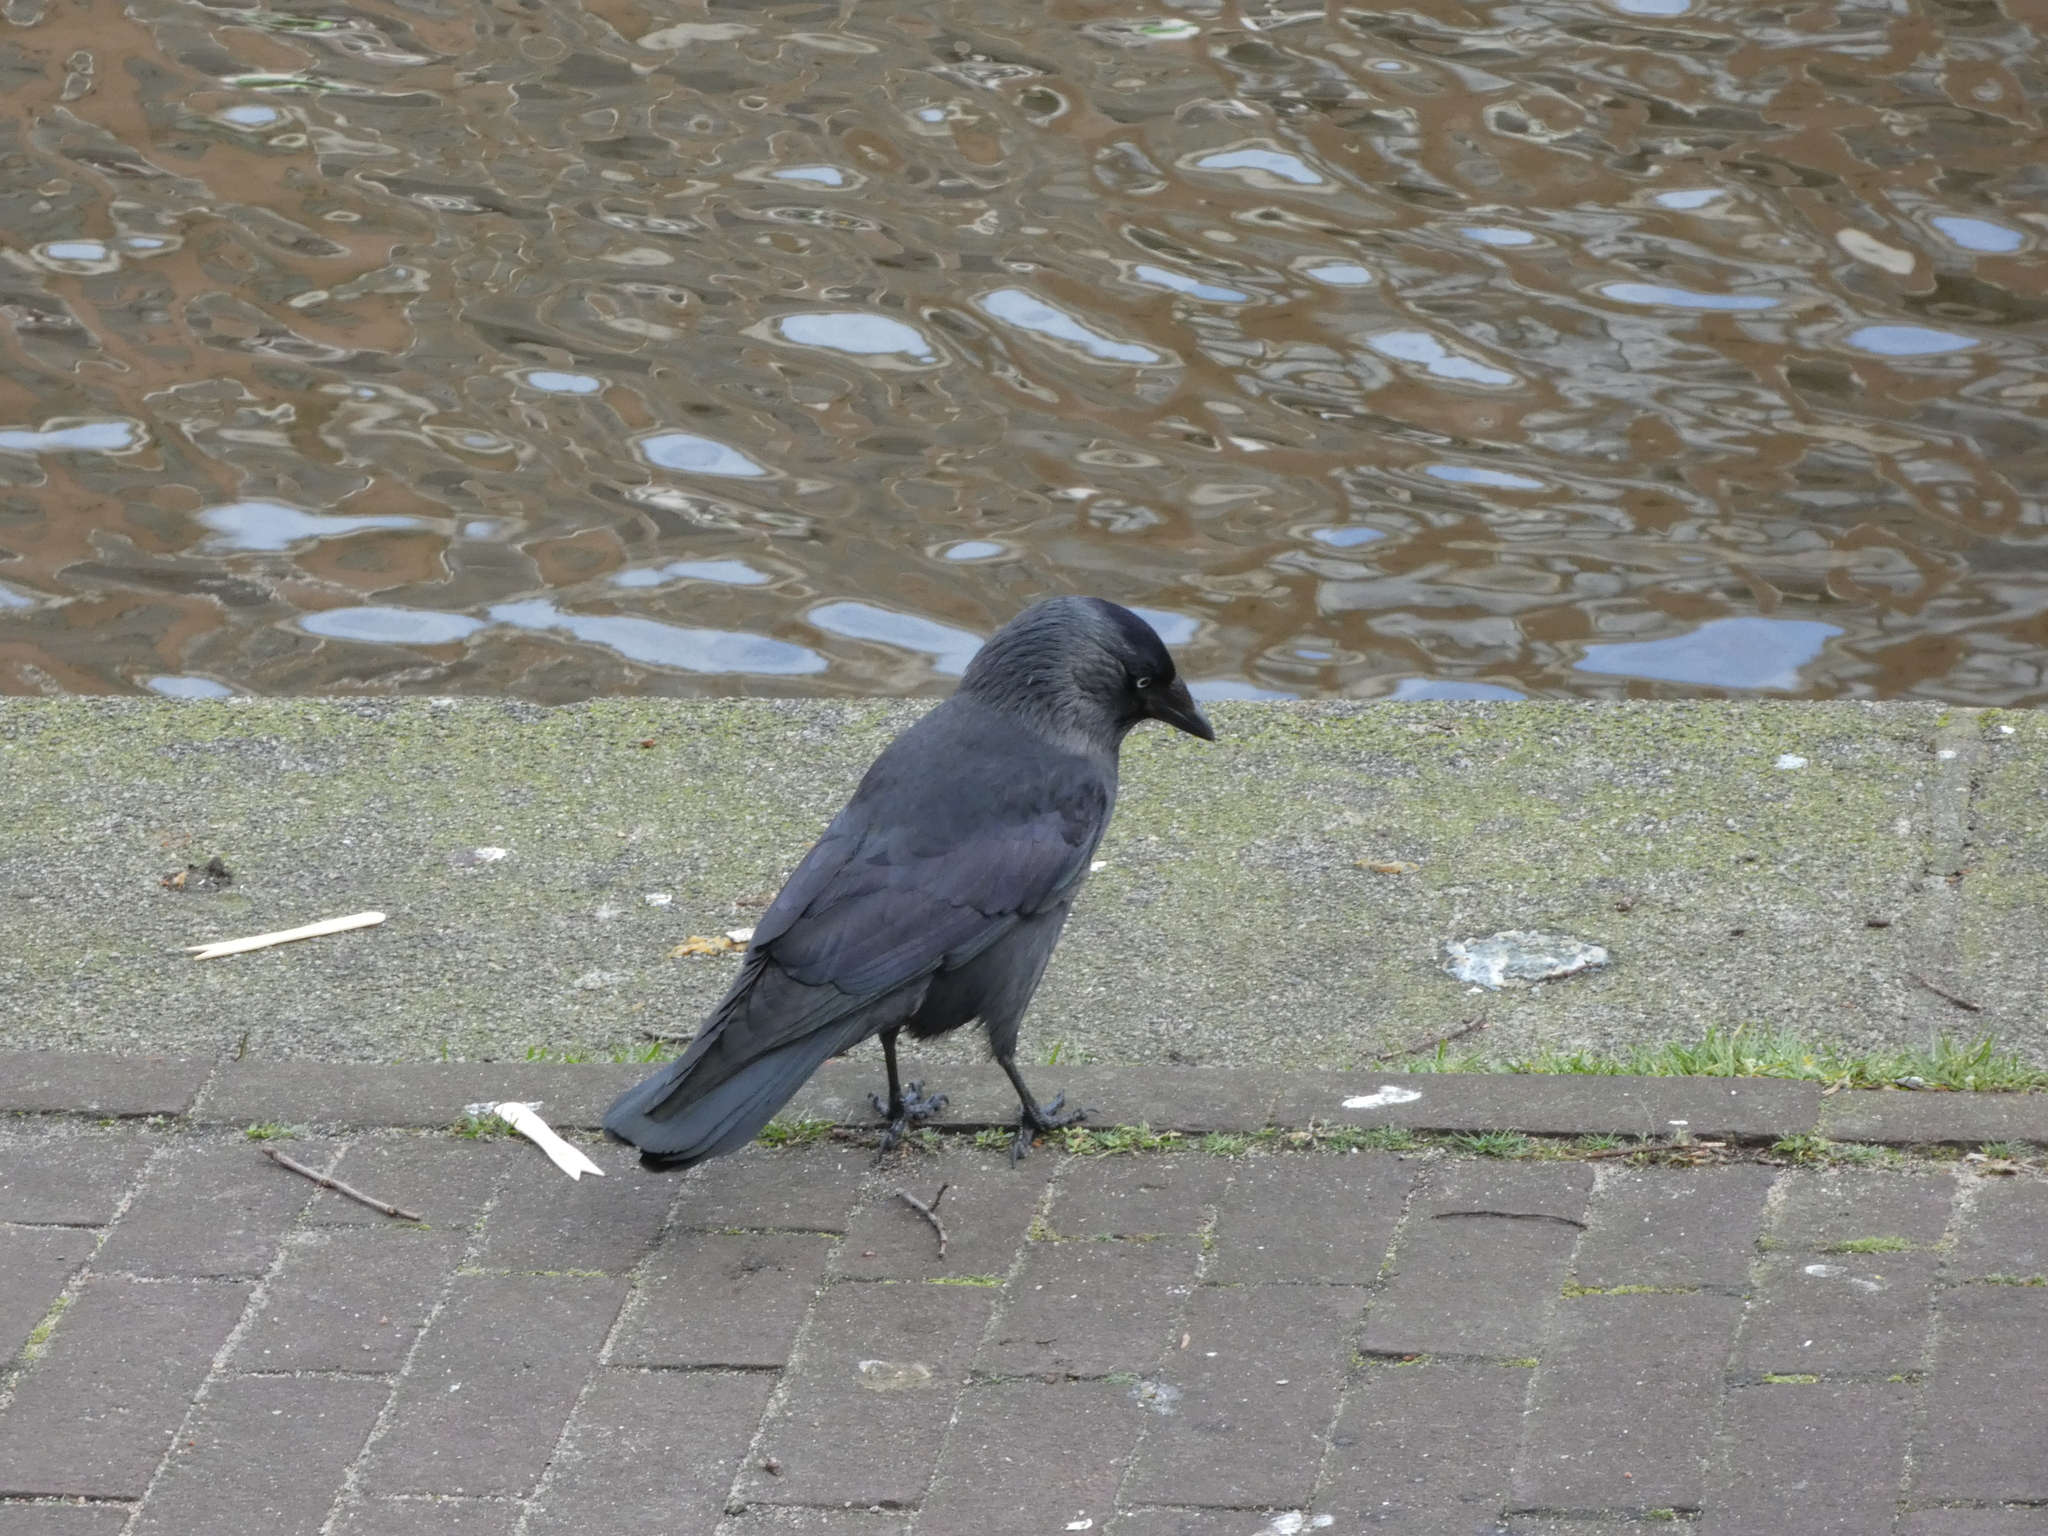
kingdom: Animalia
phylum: Chordata
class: Aves
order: Passeriformes
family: Corvidae
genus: Coloeus
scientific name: Coloeus monedula
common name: Western jackdaw
